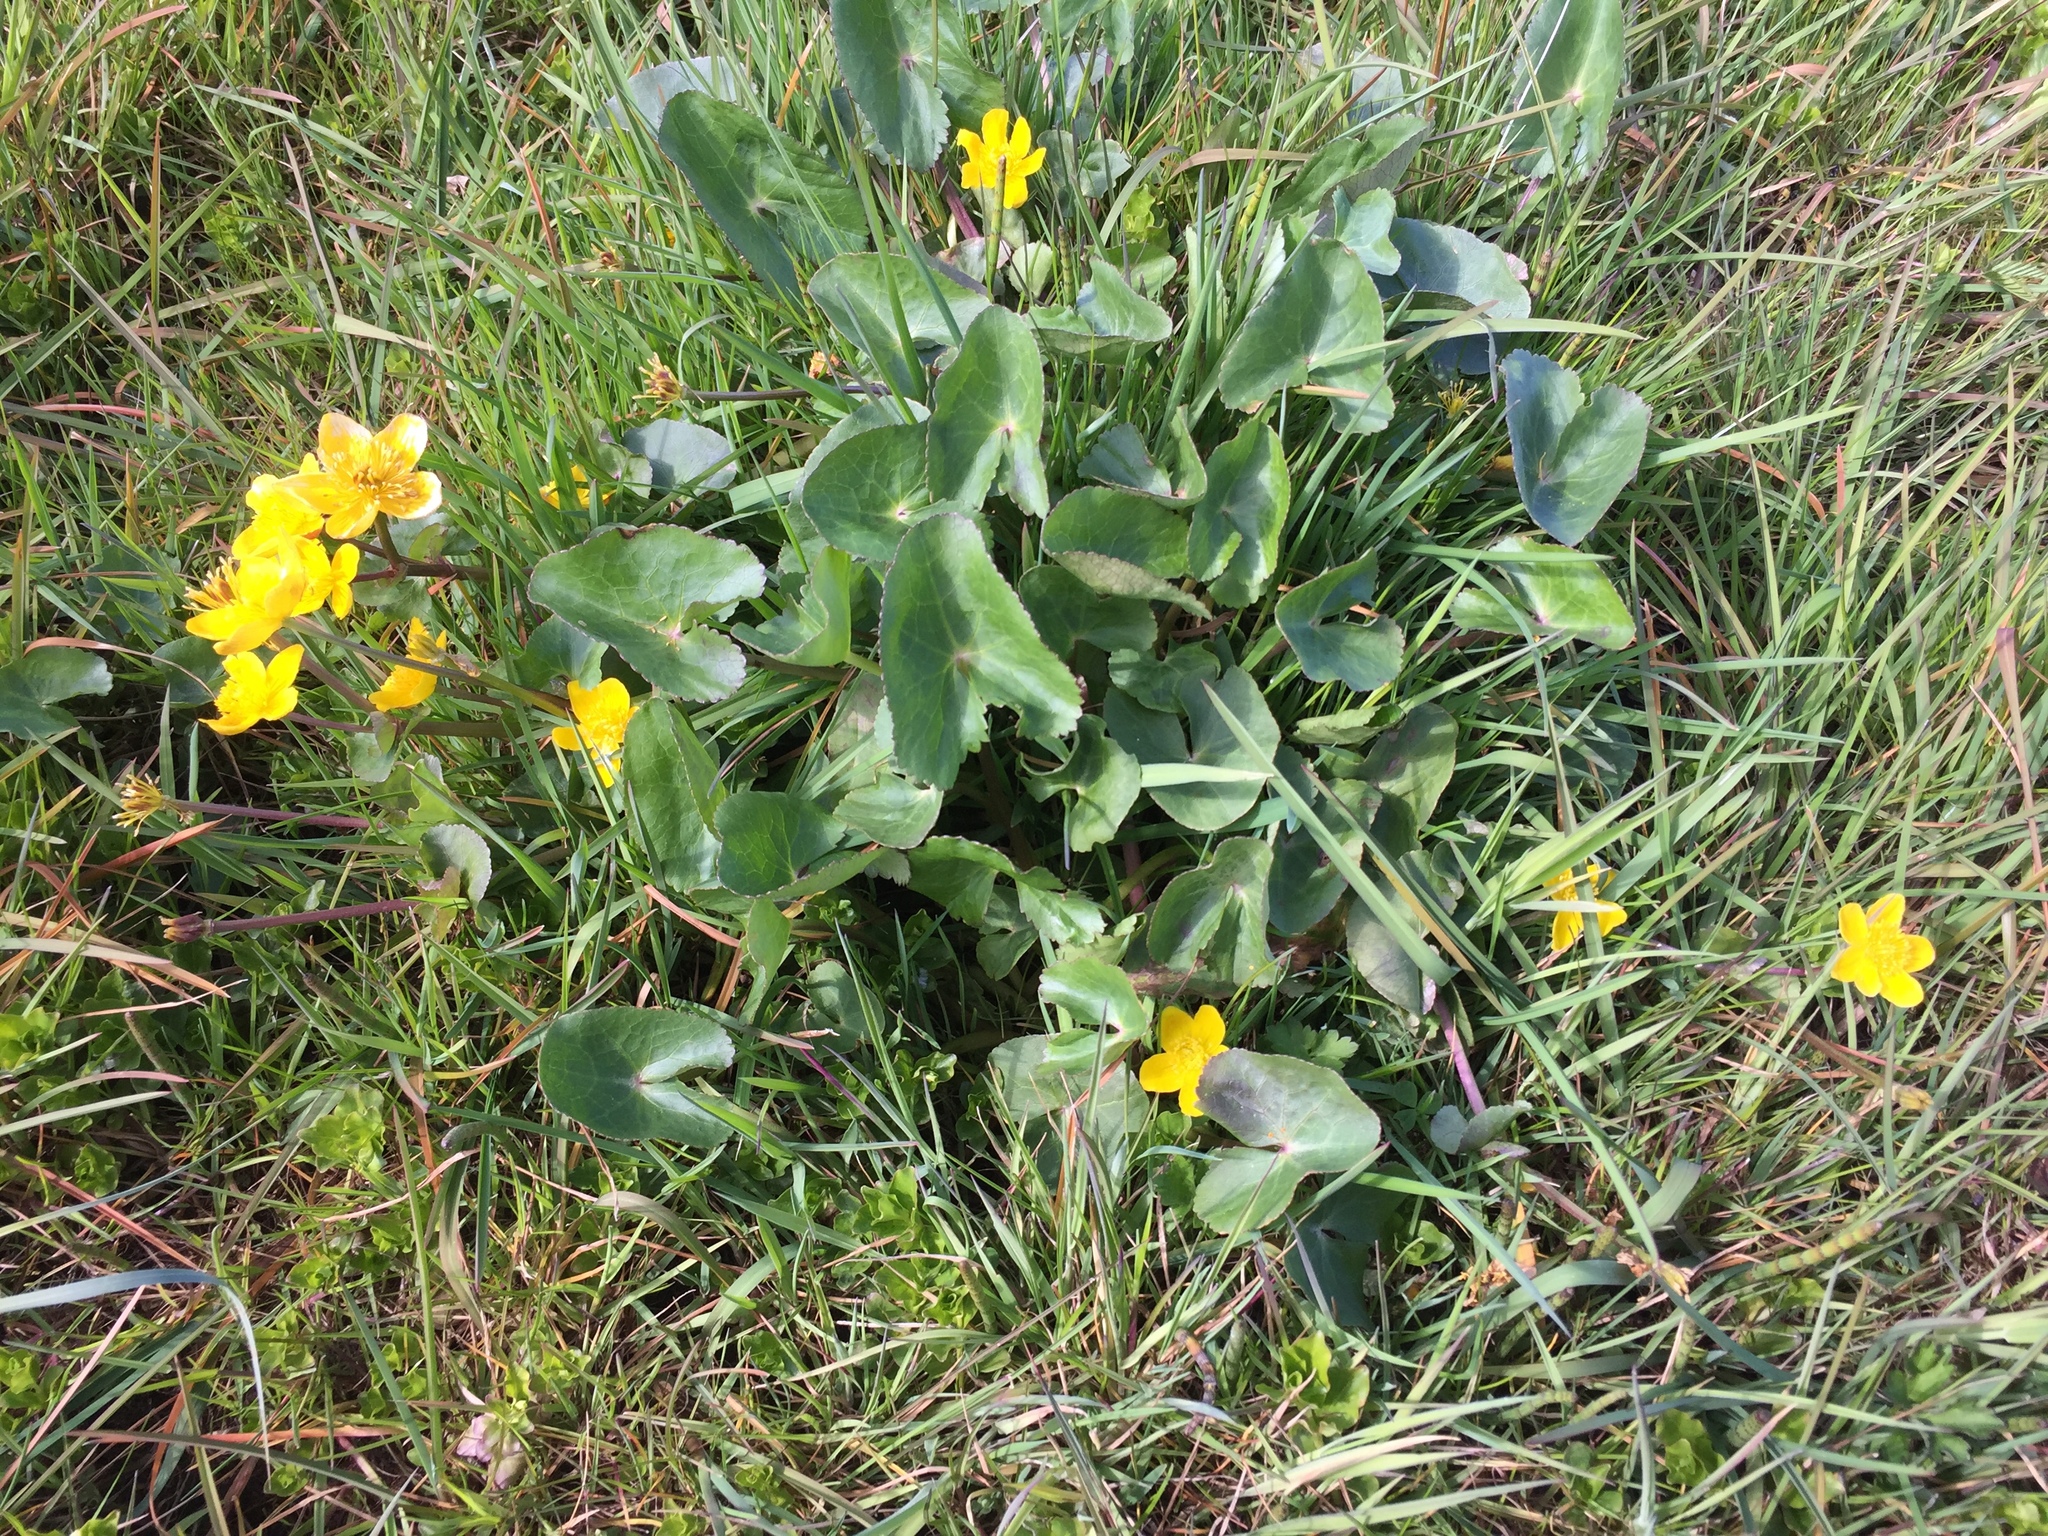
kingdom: Plantae
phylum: Tracheophyta
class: Magnoliopsida
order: Ranunculales
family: Ranunculaceae
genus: Caltha
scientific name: Caltha palustris
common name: Marsh marigold
